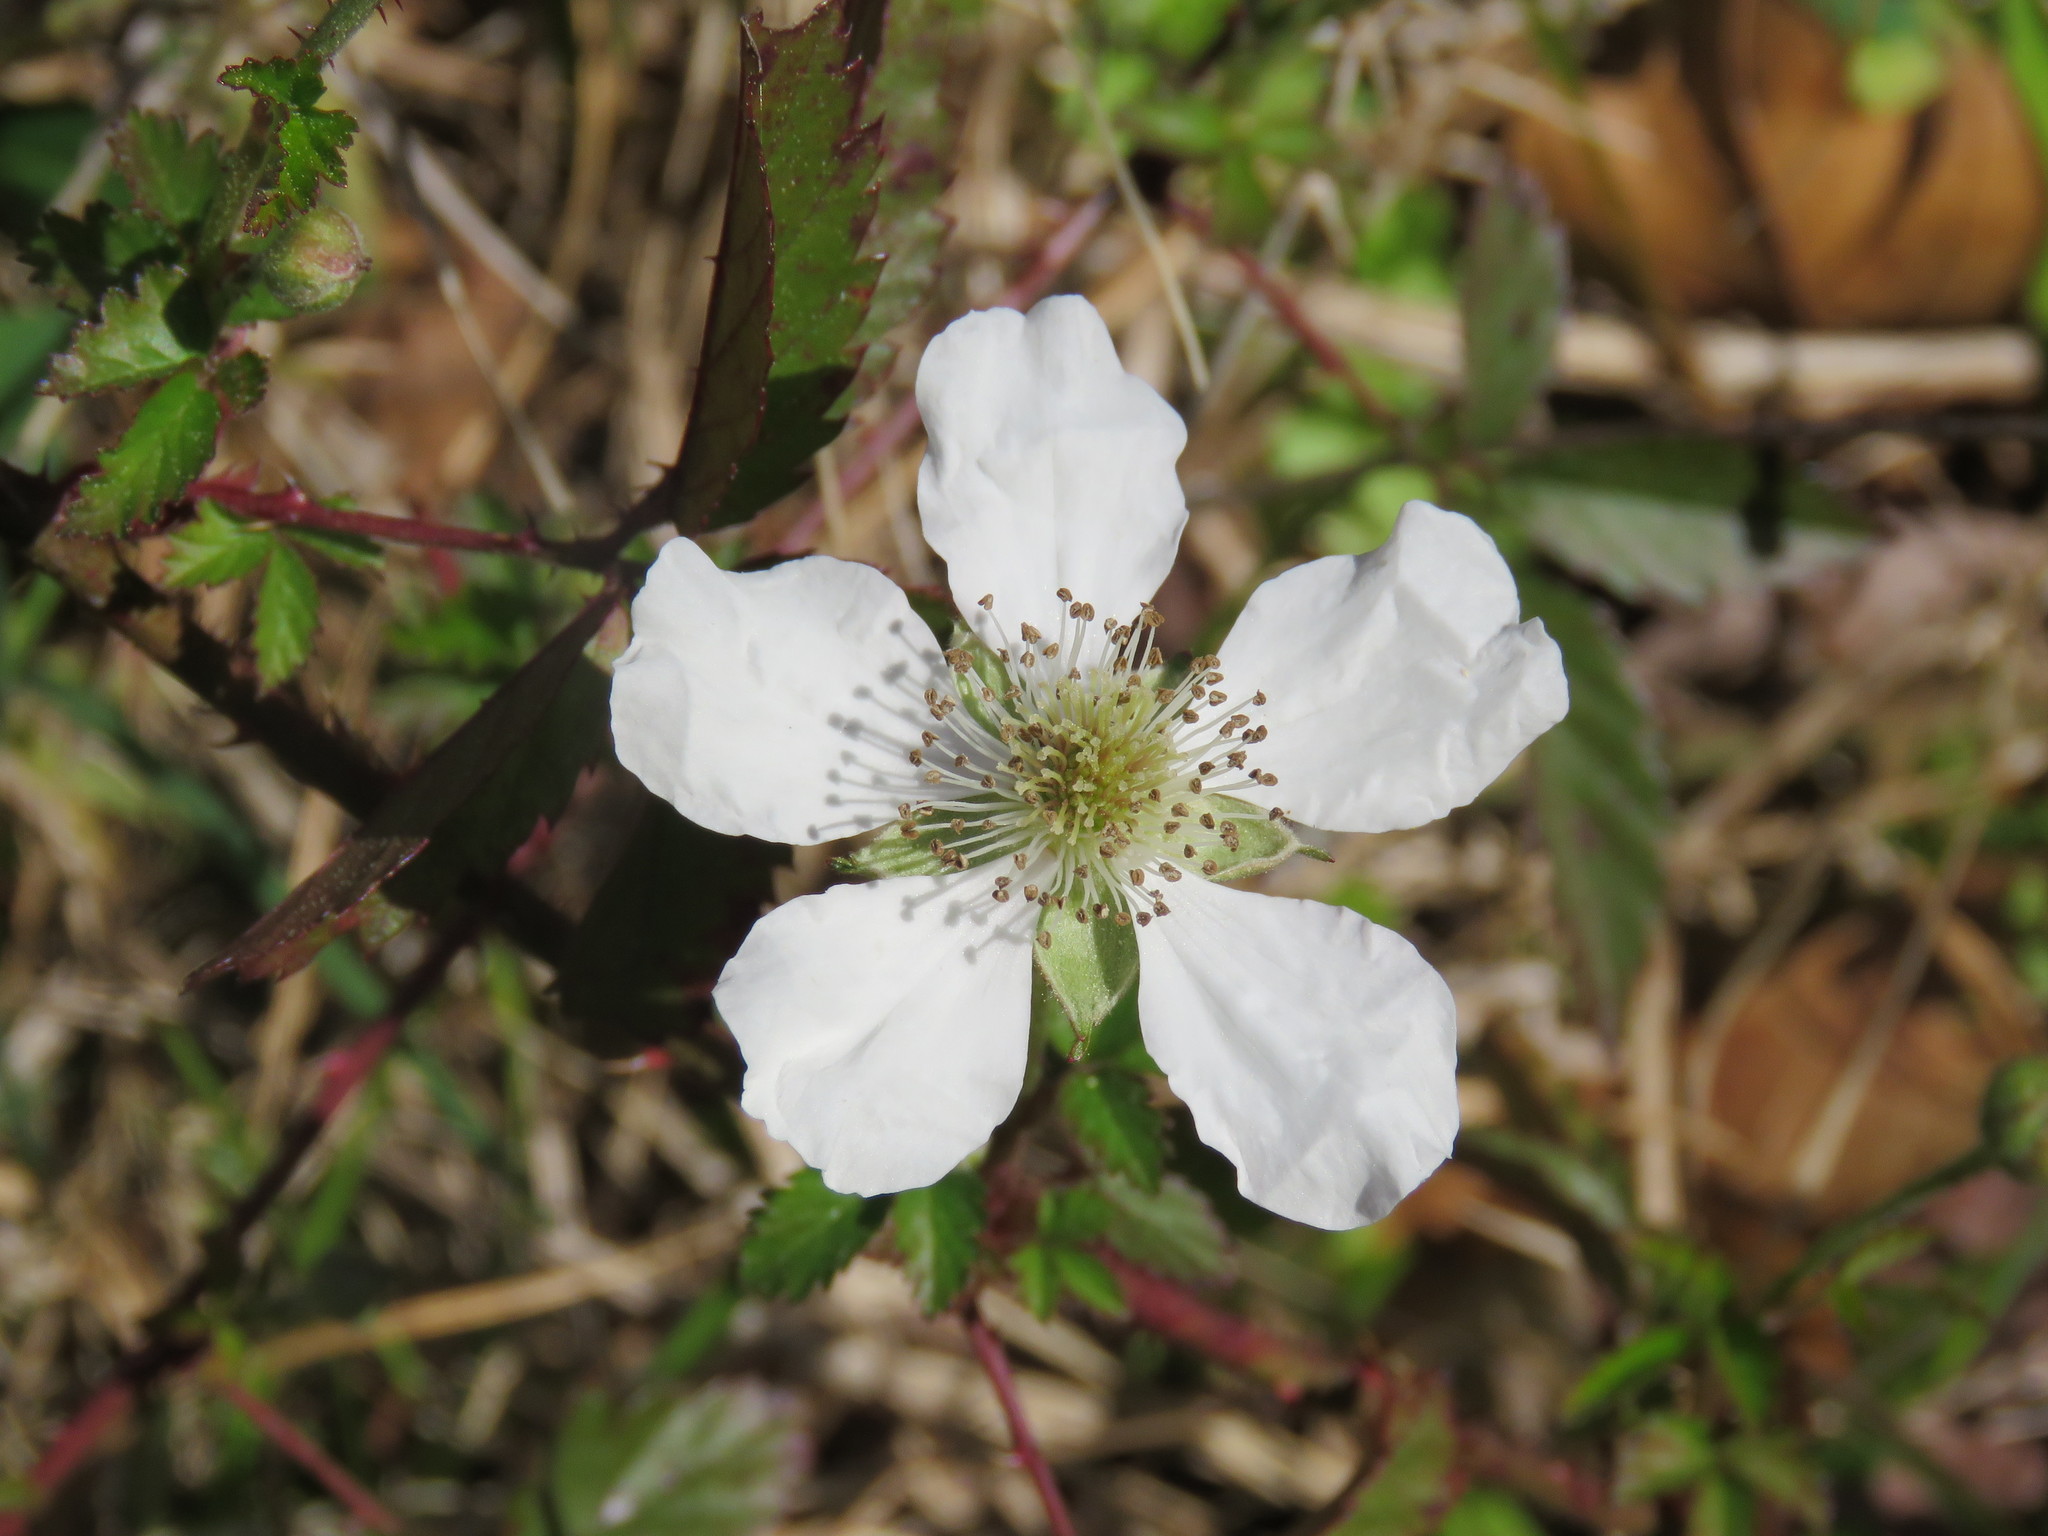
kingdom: Plantae
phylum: Tracheophyta
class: Magnoliopsida
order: Rosales
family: Rosaceae
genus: Rubus
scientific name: Rubus trivialis
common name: Southern dewberry
